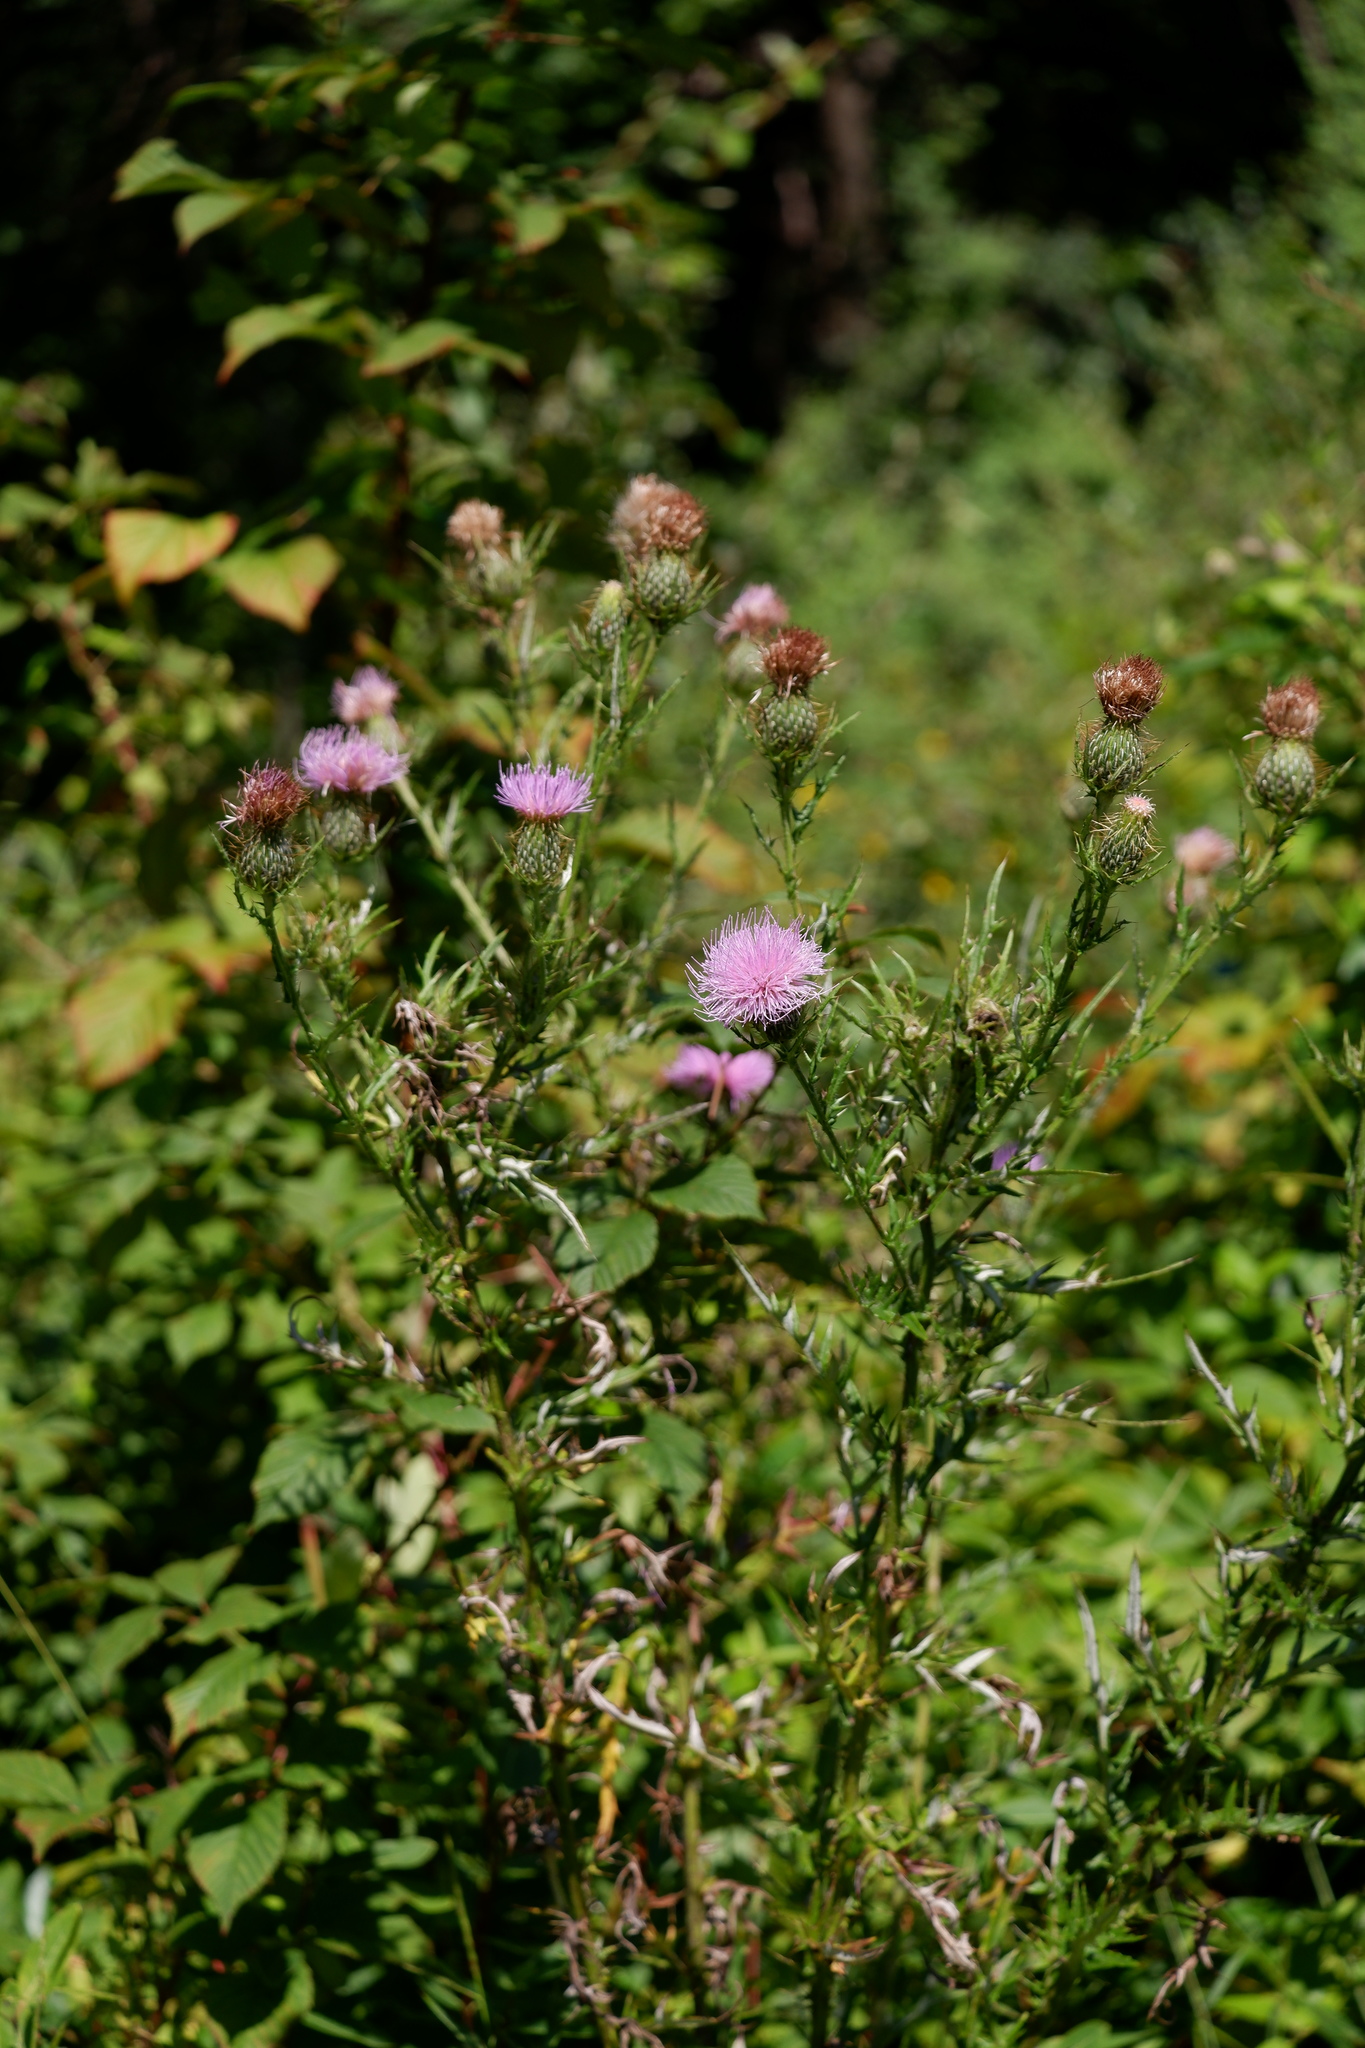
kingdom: Plantae
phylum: Tracheophyta
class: Magnoliopsida
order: Asterales
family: Asteraceae
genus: Cirsium
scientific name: Cirsium discolor
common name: Field thistle
